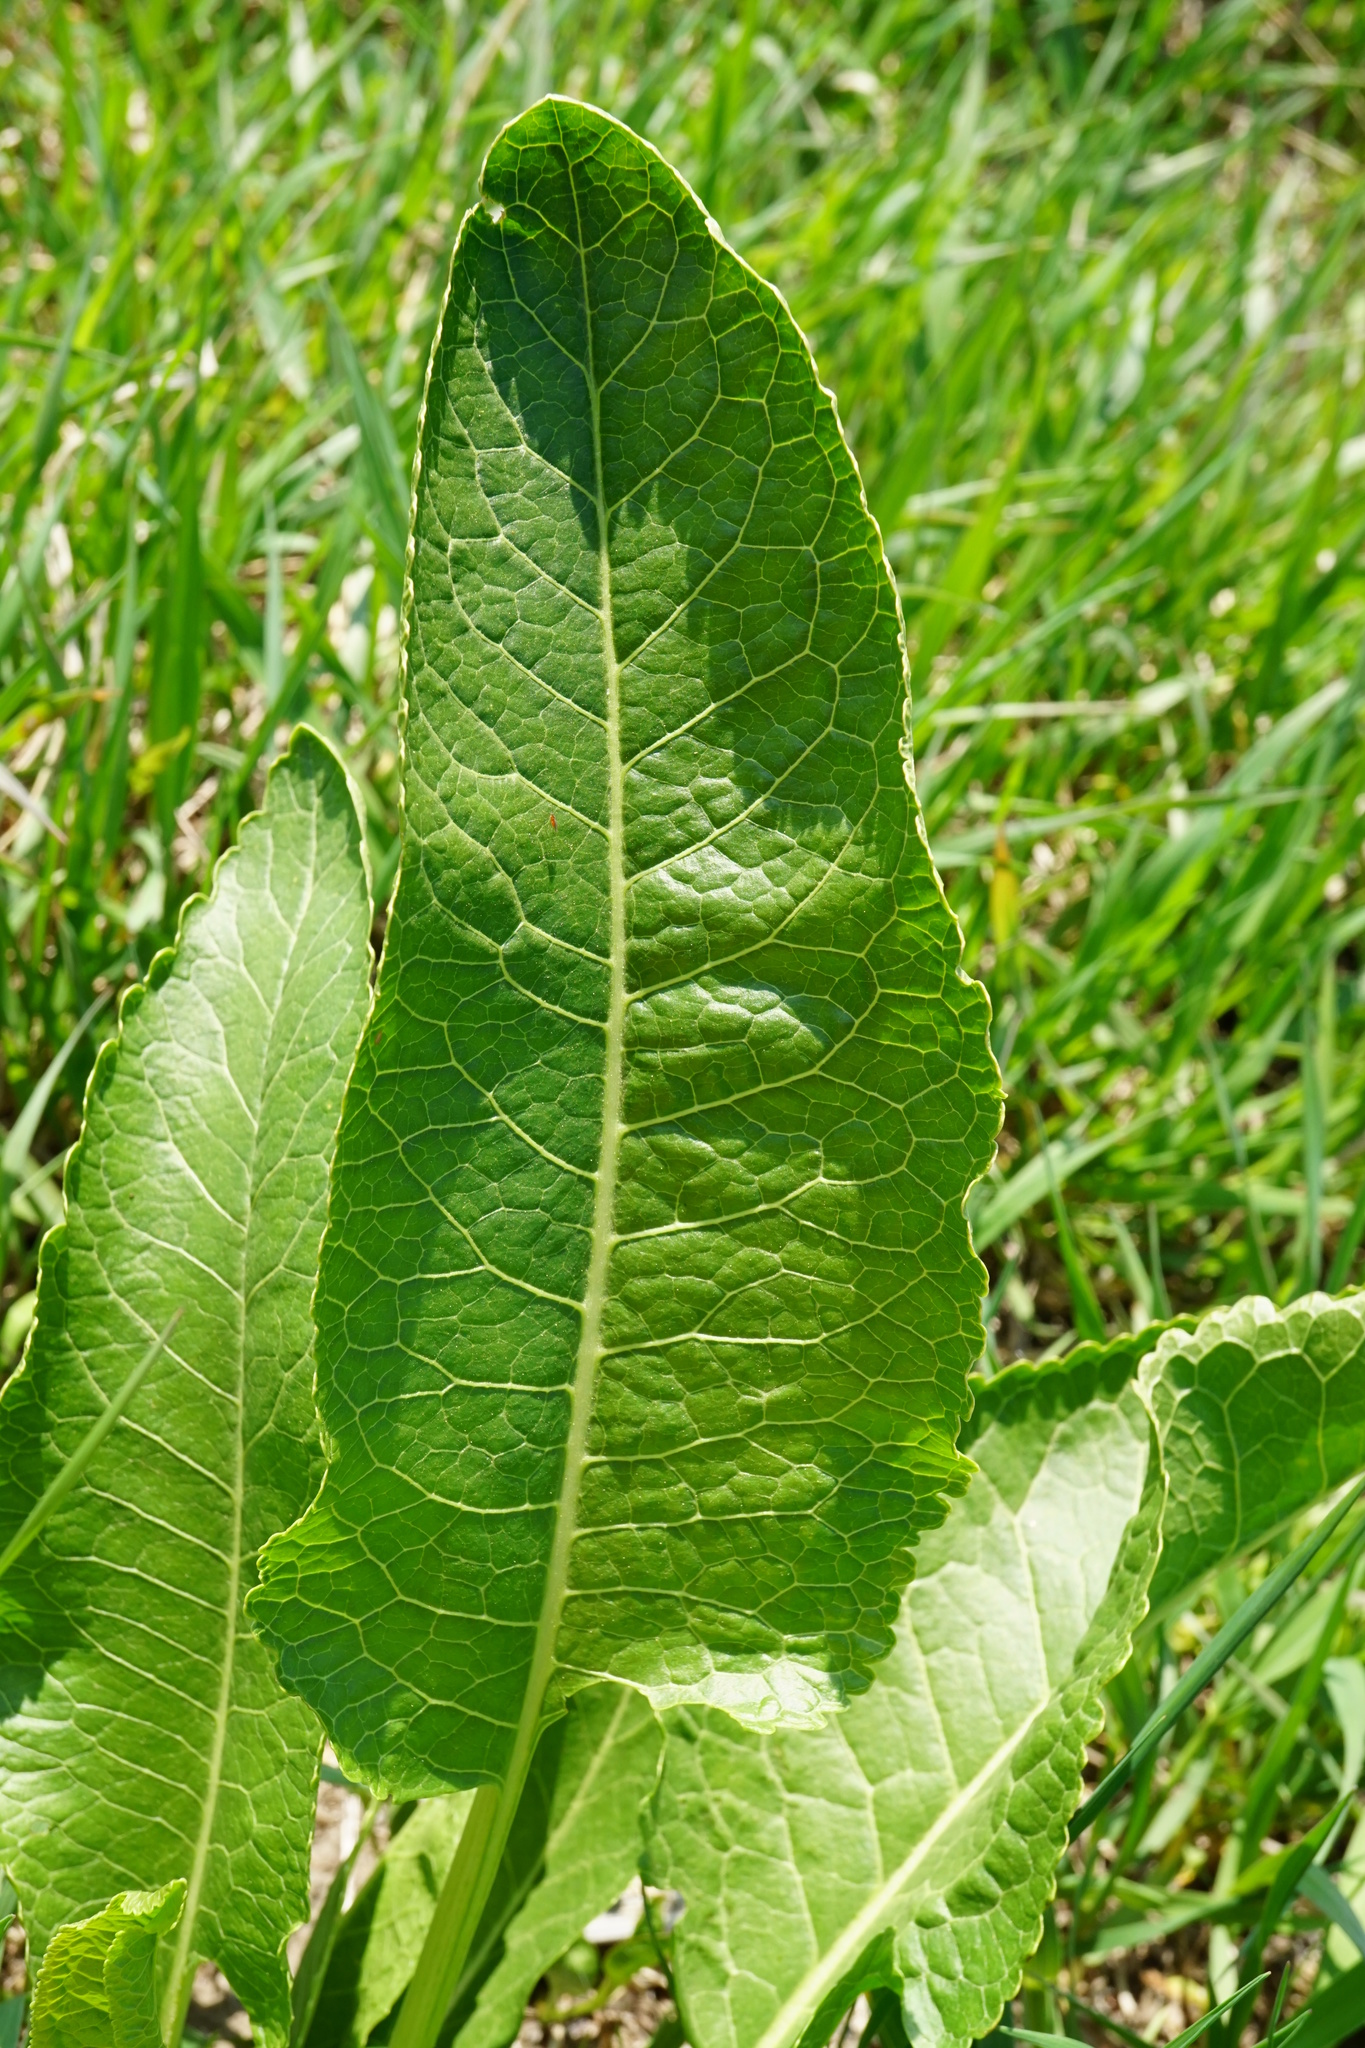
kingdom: Plantae
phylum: Tracheophyta
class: Magnoliopsida
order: Brassicales
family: Brassicaceae
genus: Armoracia
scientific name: Armoracia rusticana
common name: Horseradish
